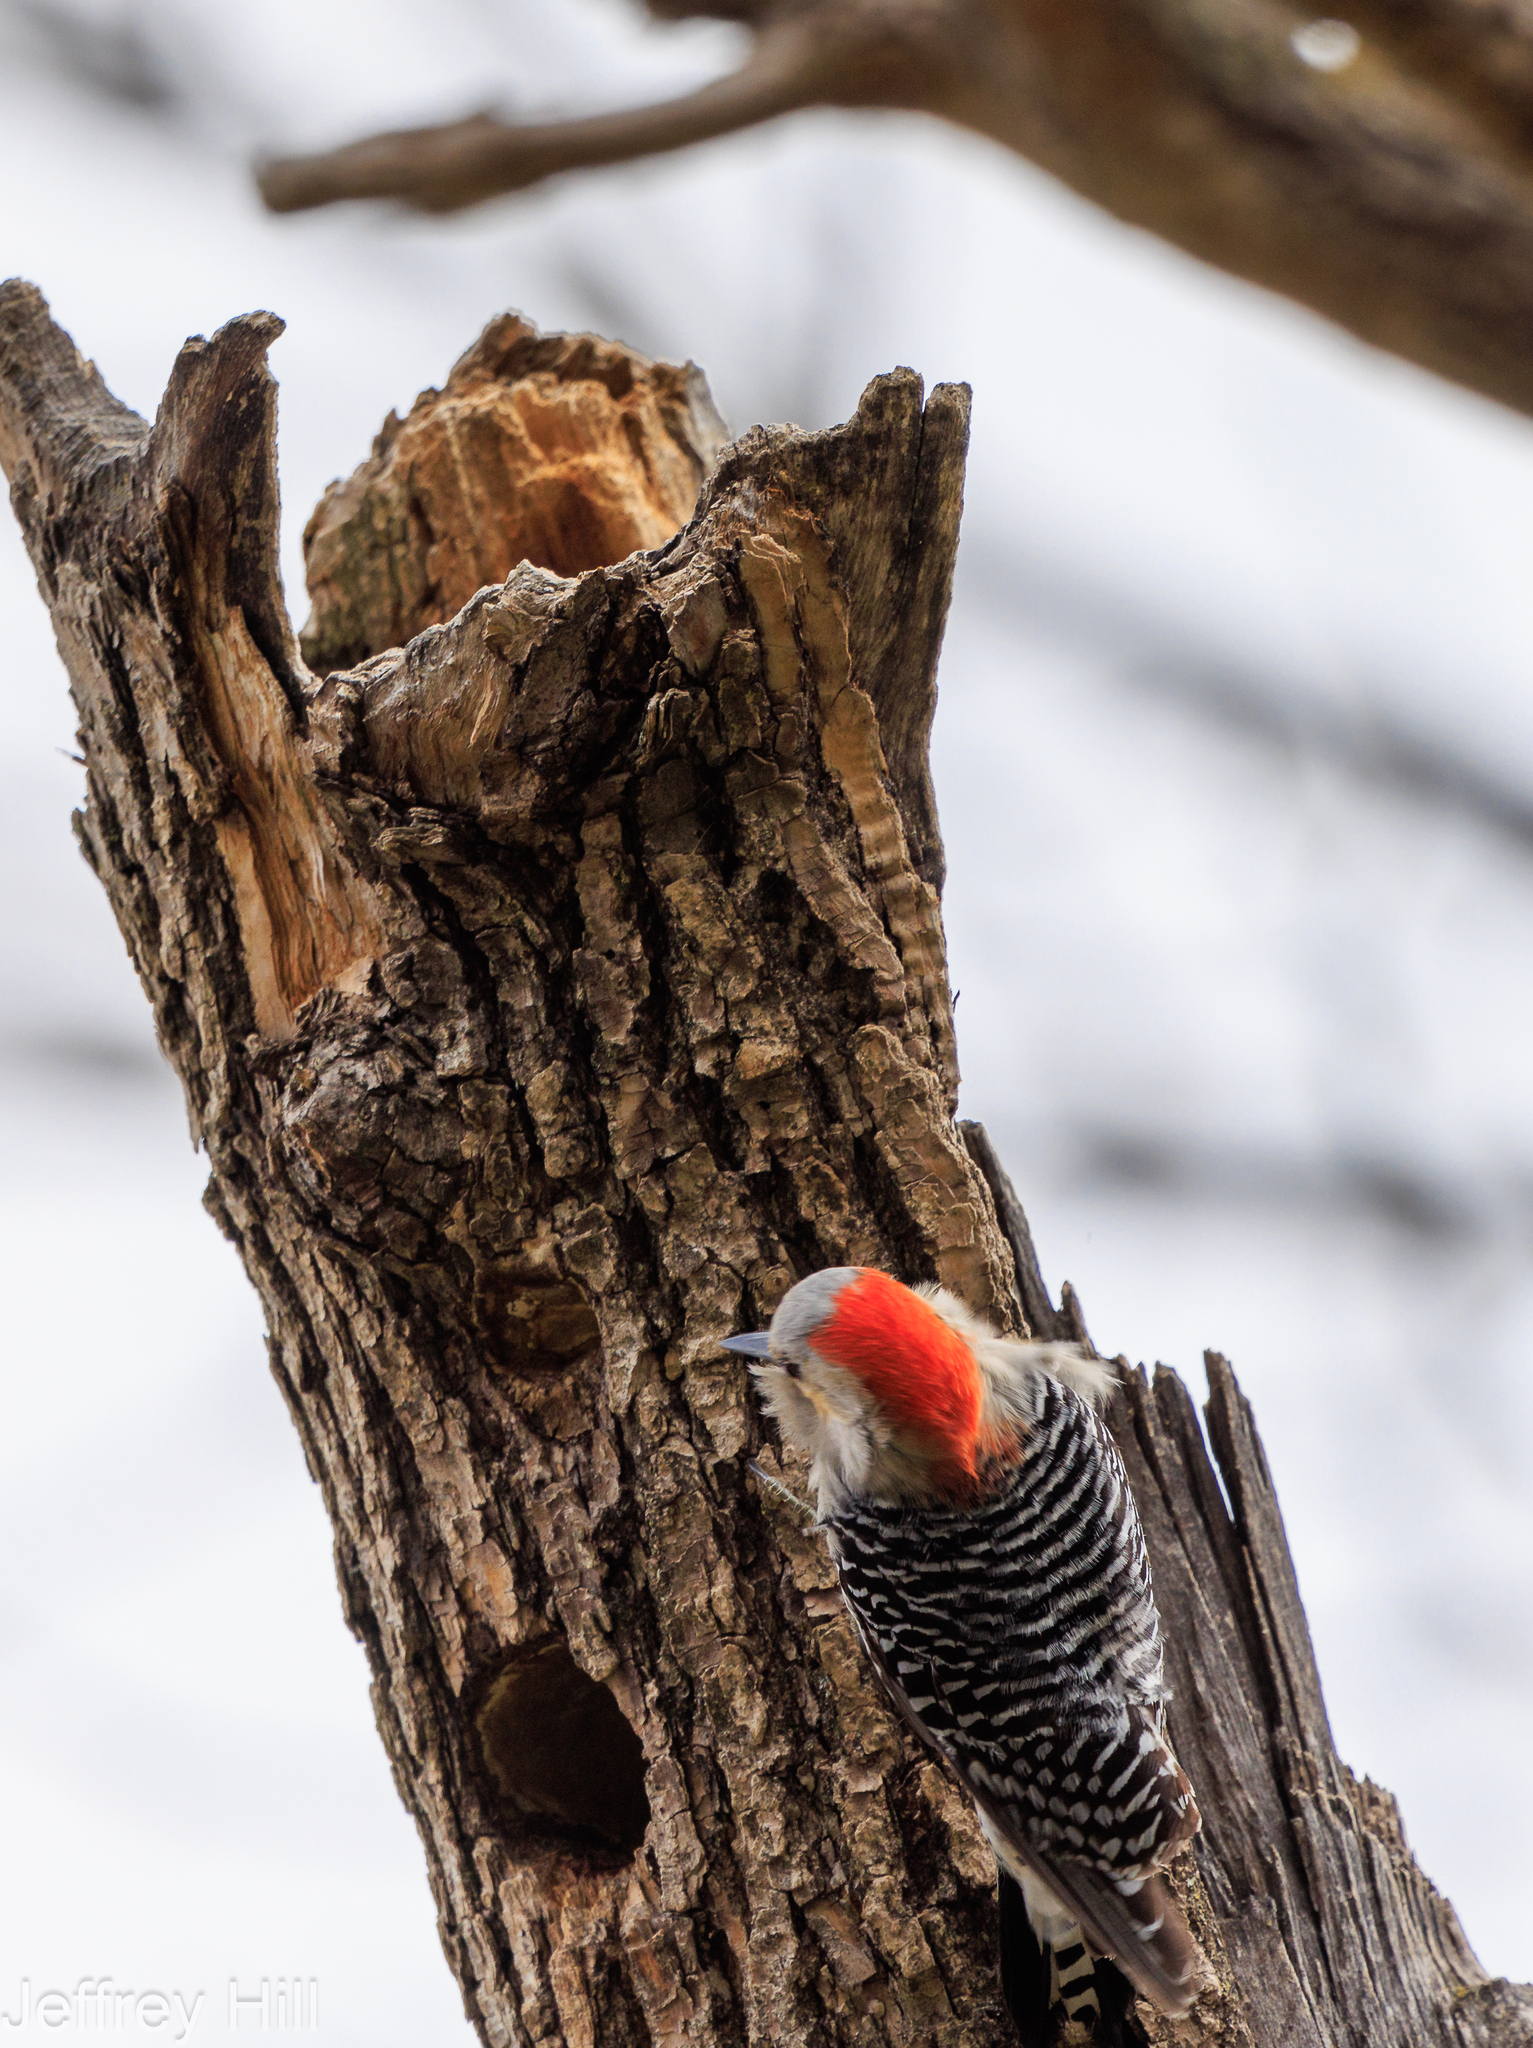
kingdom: Animalia
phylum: Chordata
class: Aves
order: Piciformes
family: Picidae
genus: Melanerpes
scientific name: Melanerpes carolinus
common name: Red-bellied woodpecker
